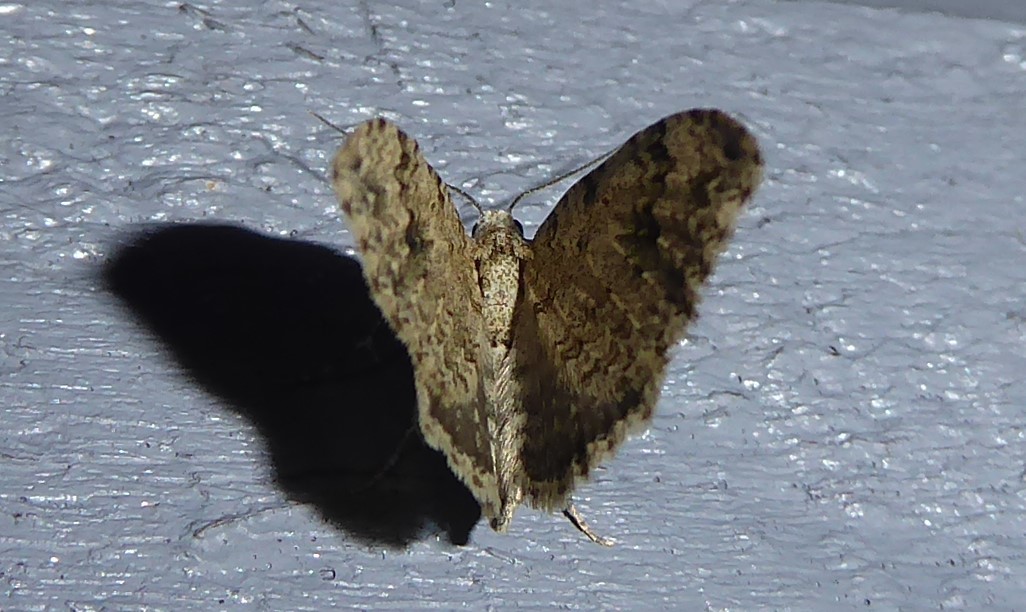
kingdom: Animalia
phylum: Arthropoda
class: Insecta
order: Lepidoptera
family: Geometridae
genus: Helastia
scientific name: Helastia cinerearia
